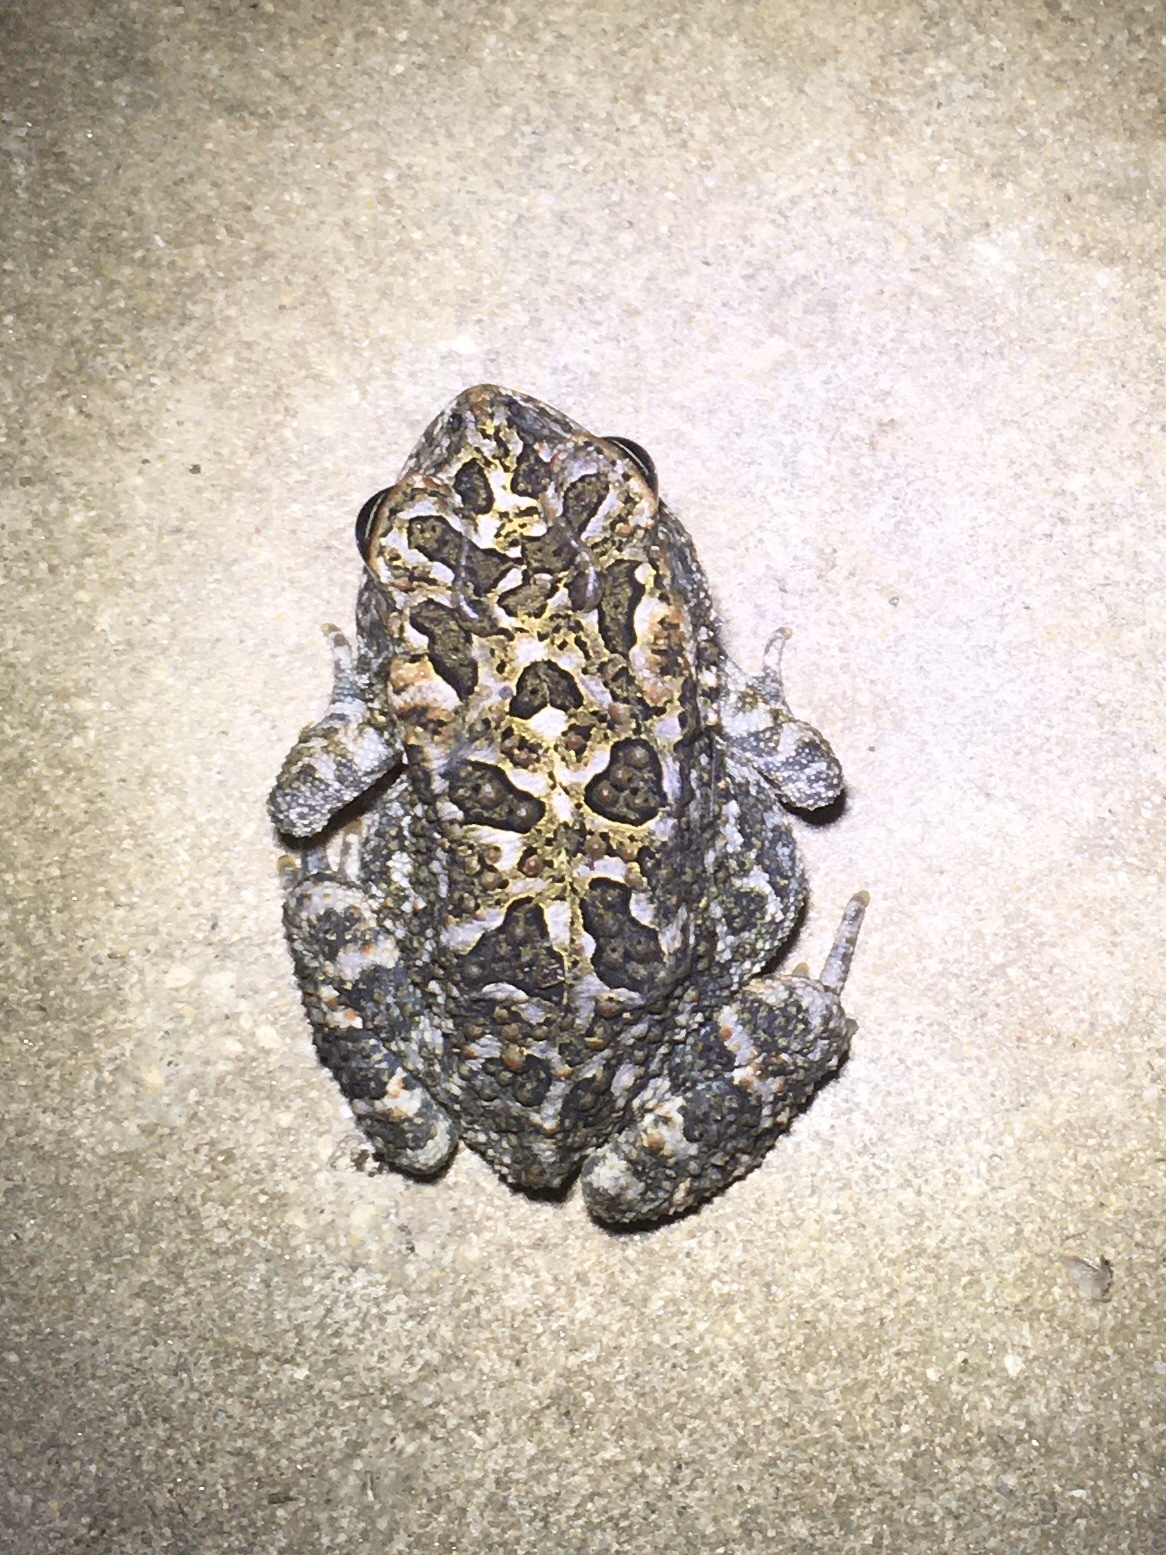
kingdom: Animalia
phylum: Chordata
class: Amphibia
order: Anura
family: Bufonidae
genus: Anaxyrus
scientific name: Anaxyrus terrestris
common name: Southern toad
